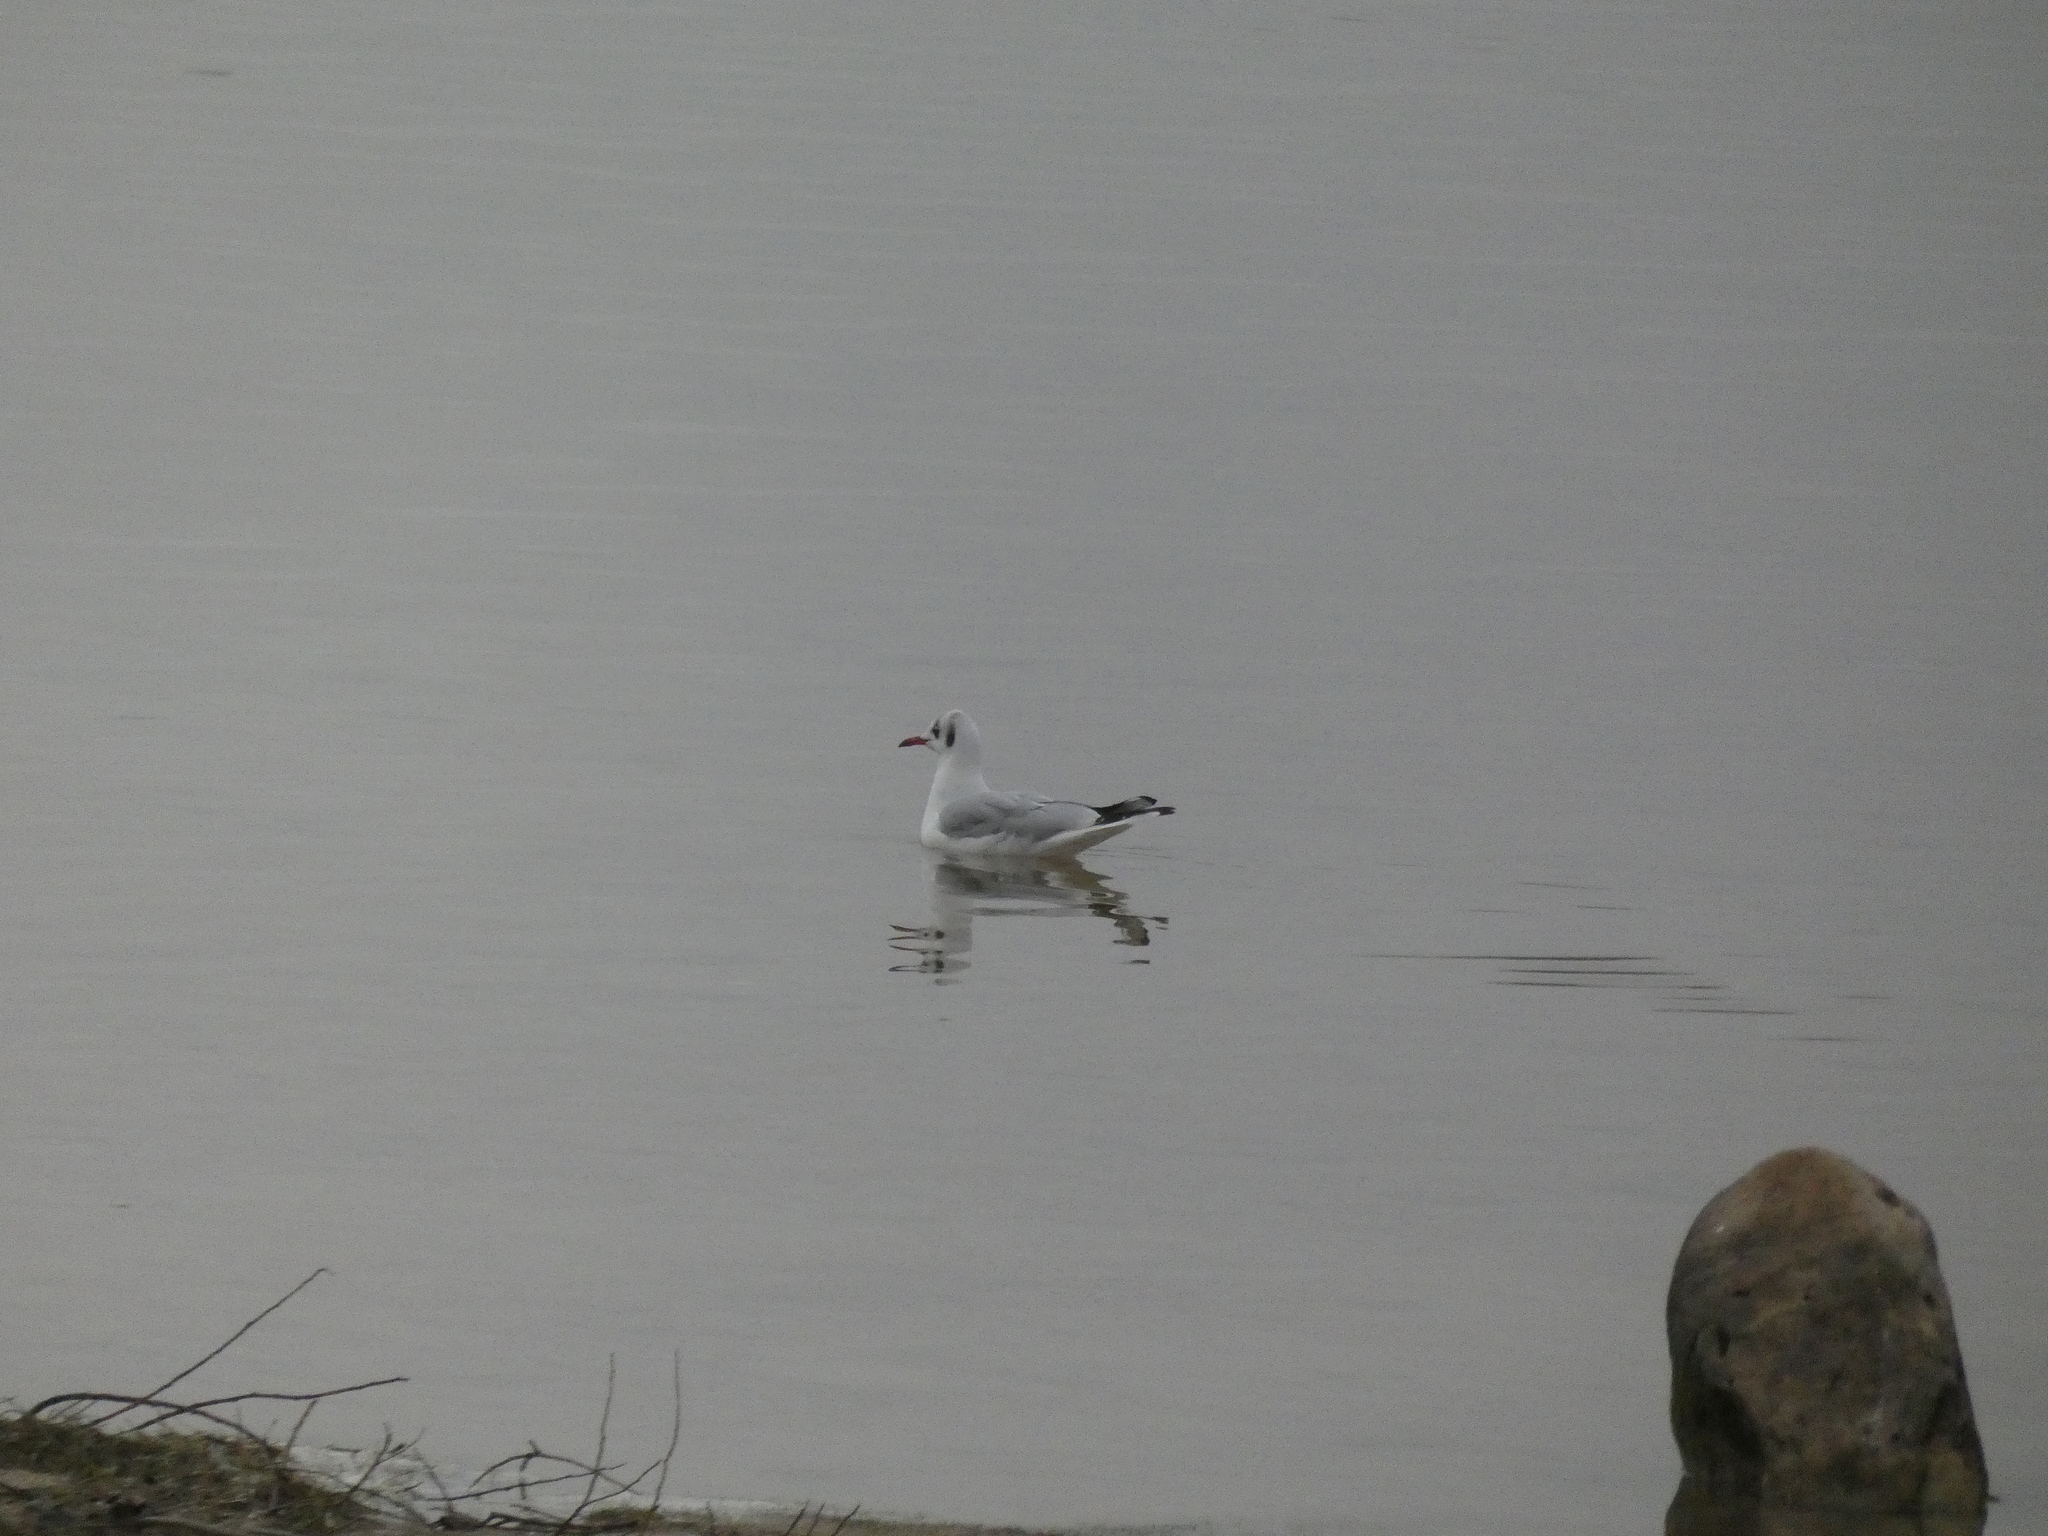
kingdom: Animalia
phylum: Chordata
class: Aves
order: Charadriiformes
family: Laridae
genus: Chroicocephalus
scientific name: Chroicocephalus ridibundus
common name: Black-headed gull
